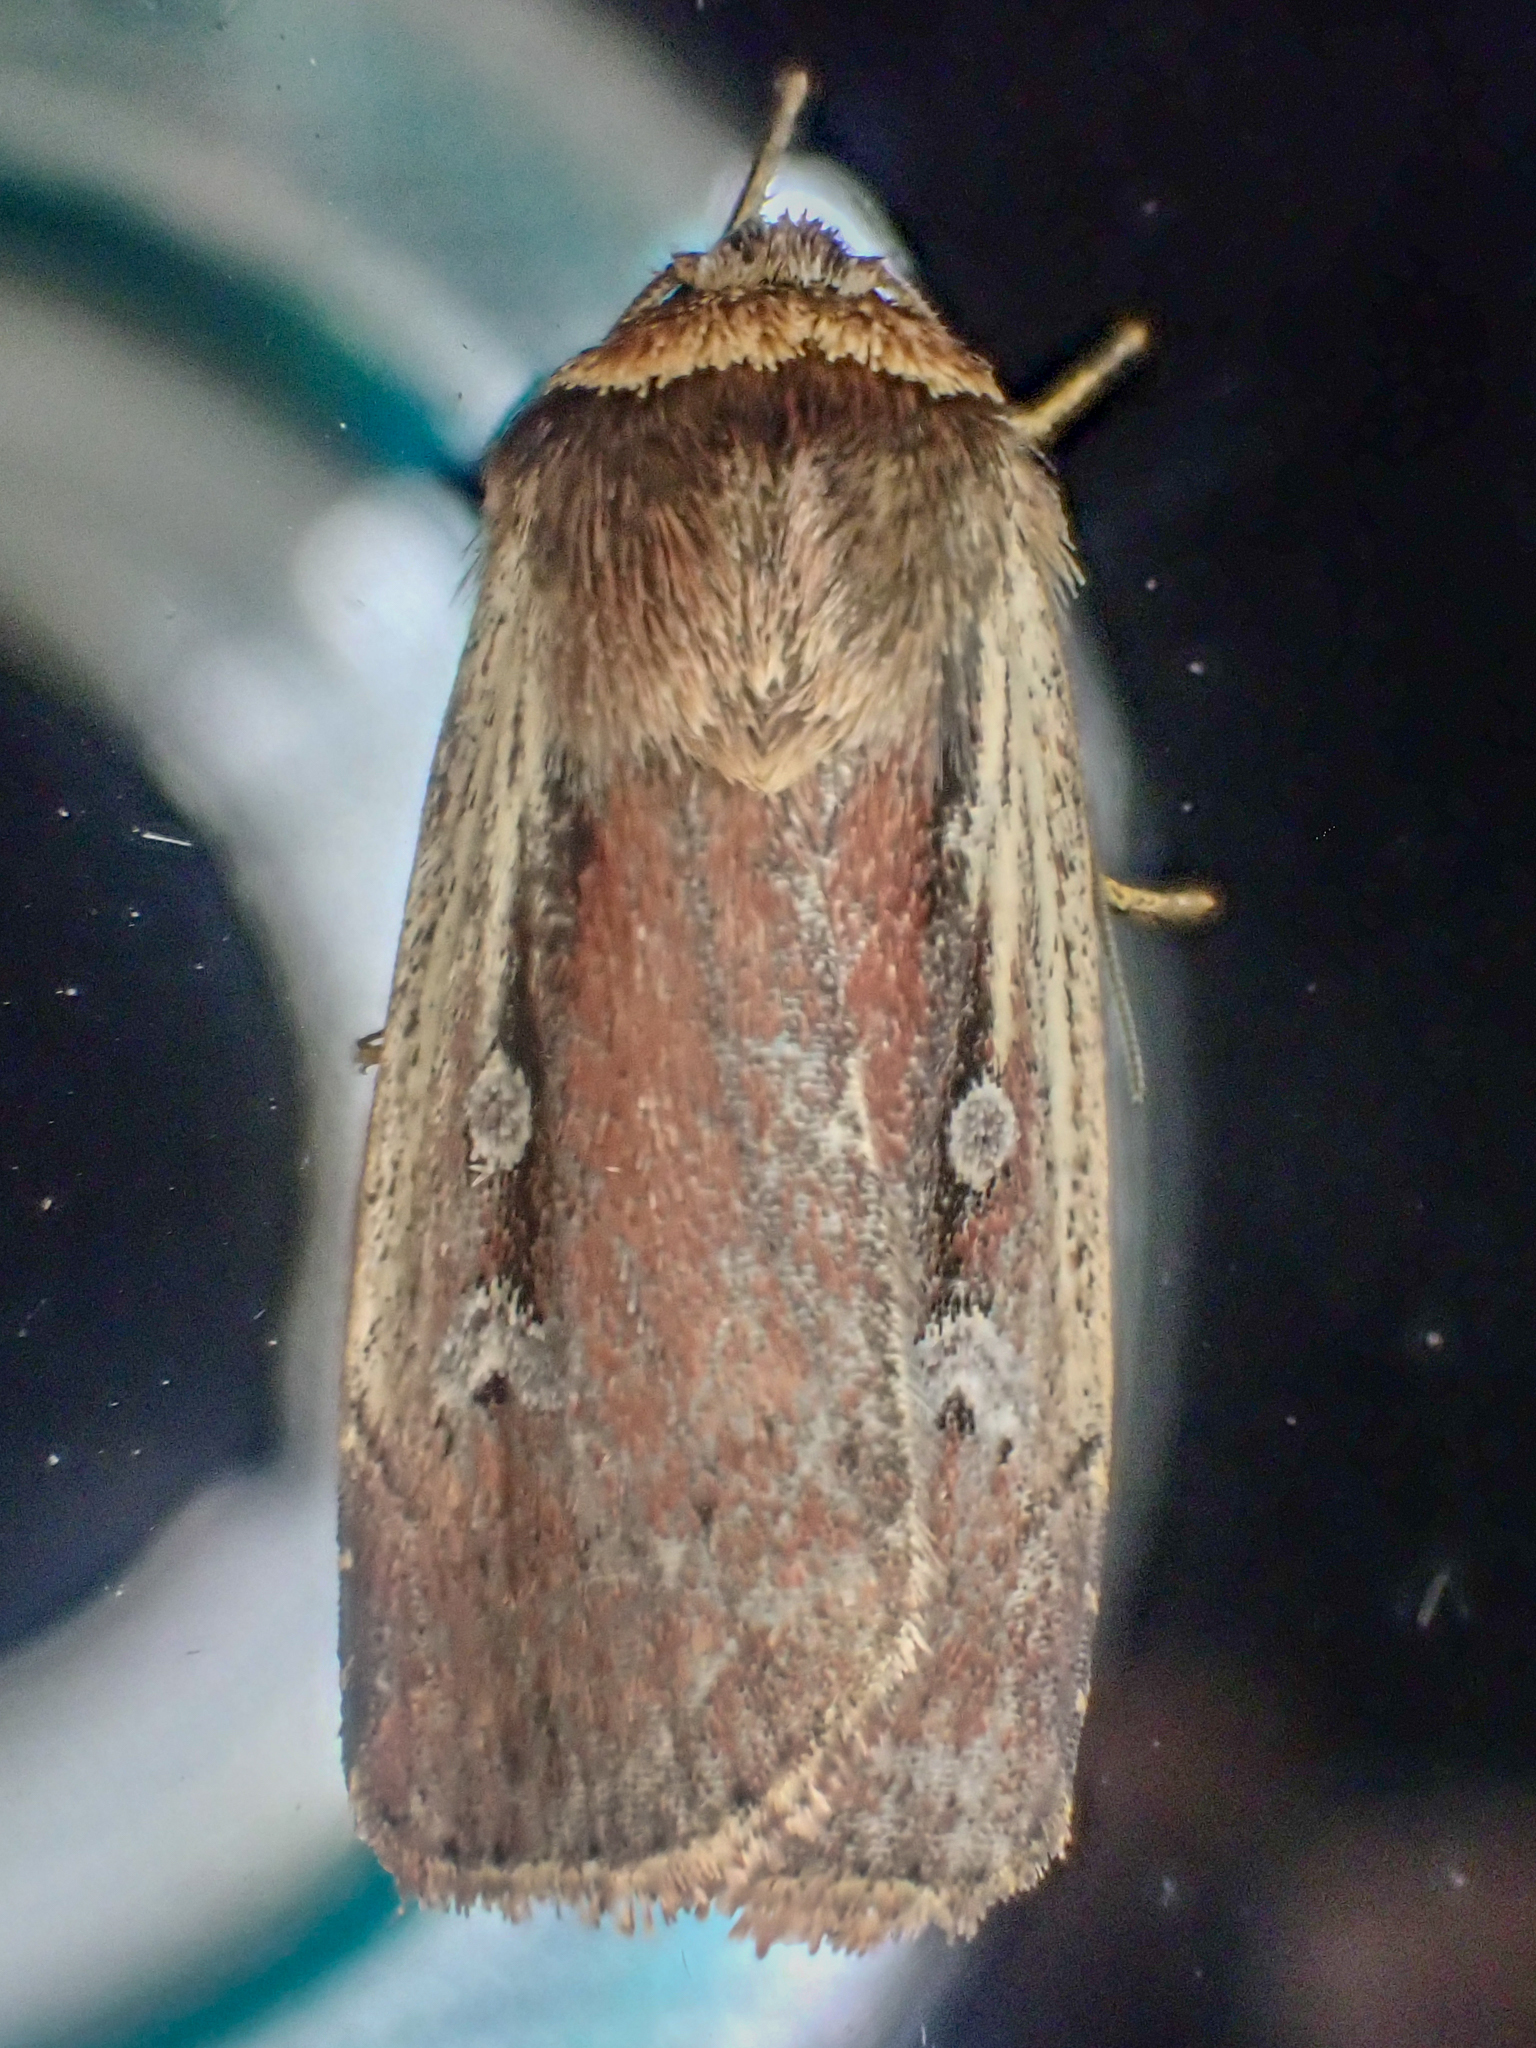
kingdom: Animalia
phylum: Arthropoda
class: Insecta
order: Lepidoptera
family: Noctuidae
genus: Ochropleura
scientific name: Ochropleura implecta
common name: Flame-shouldered dart
